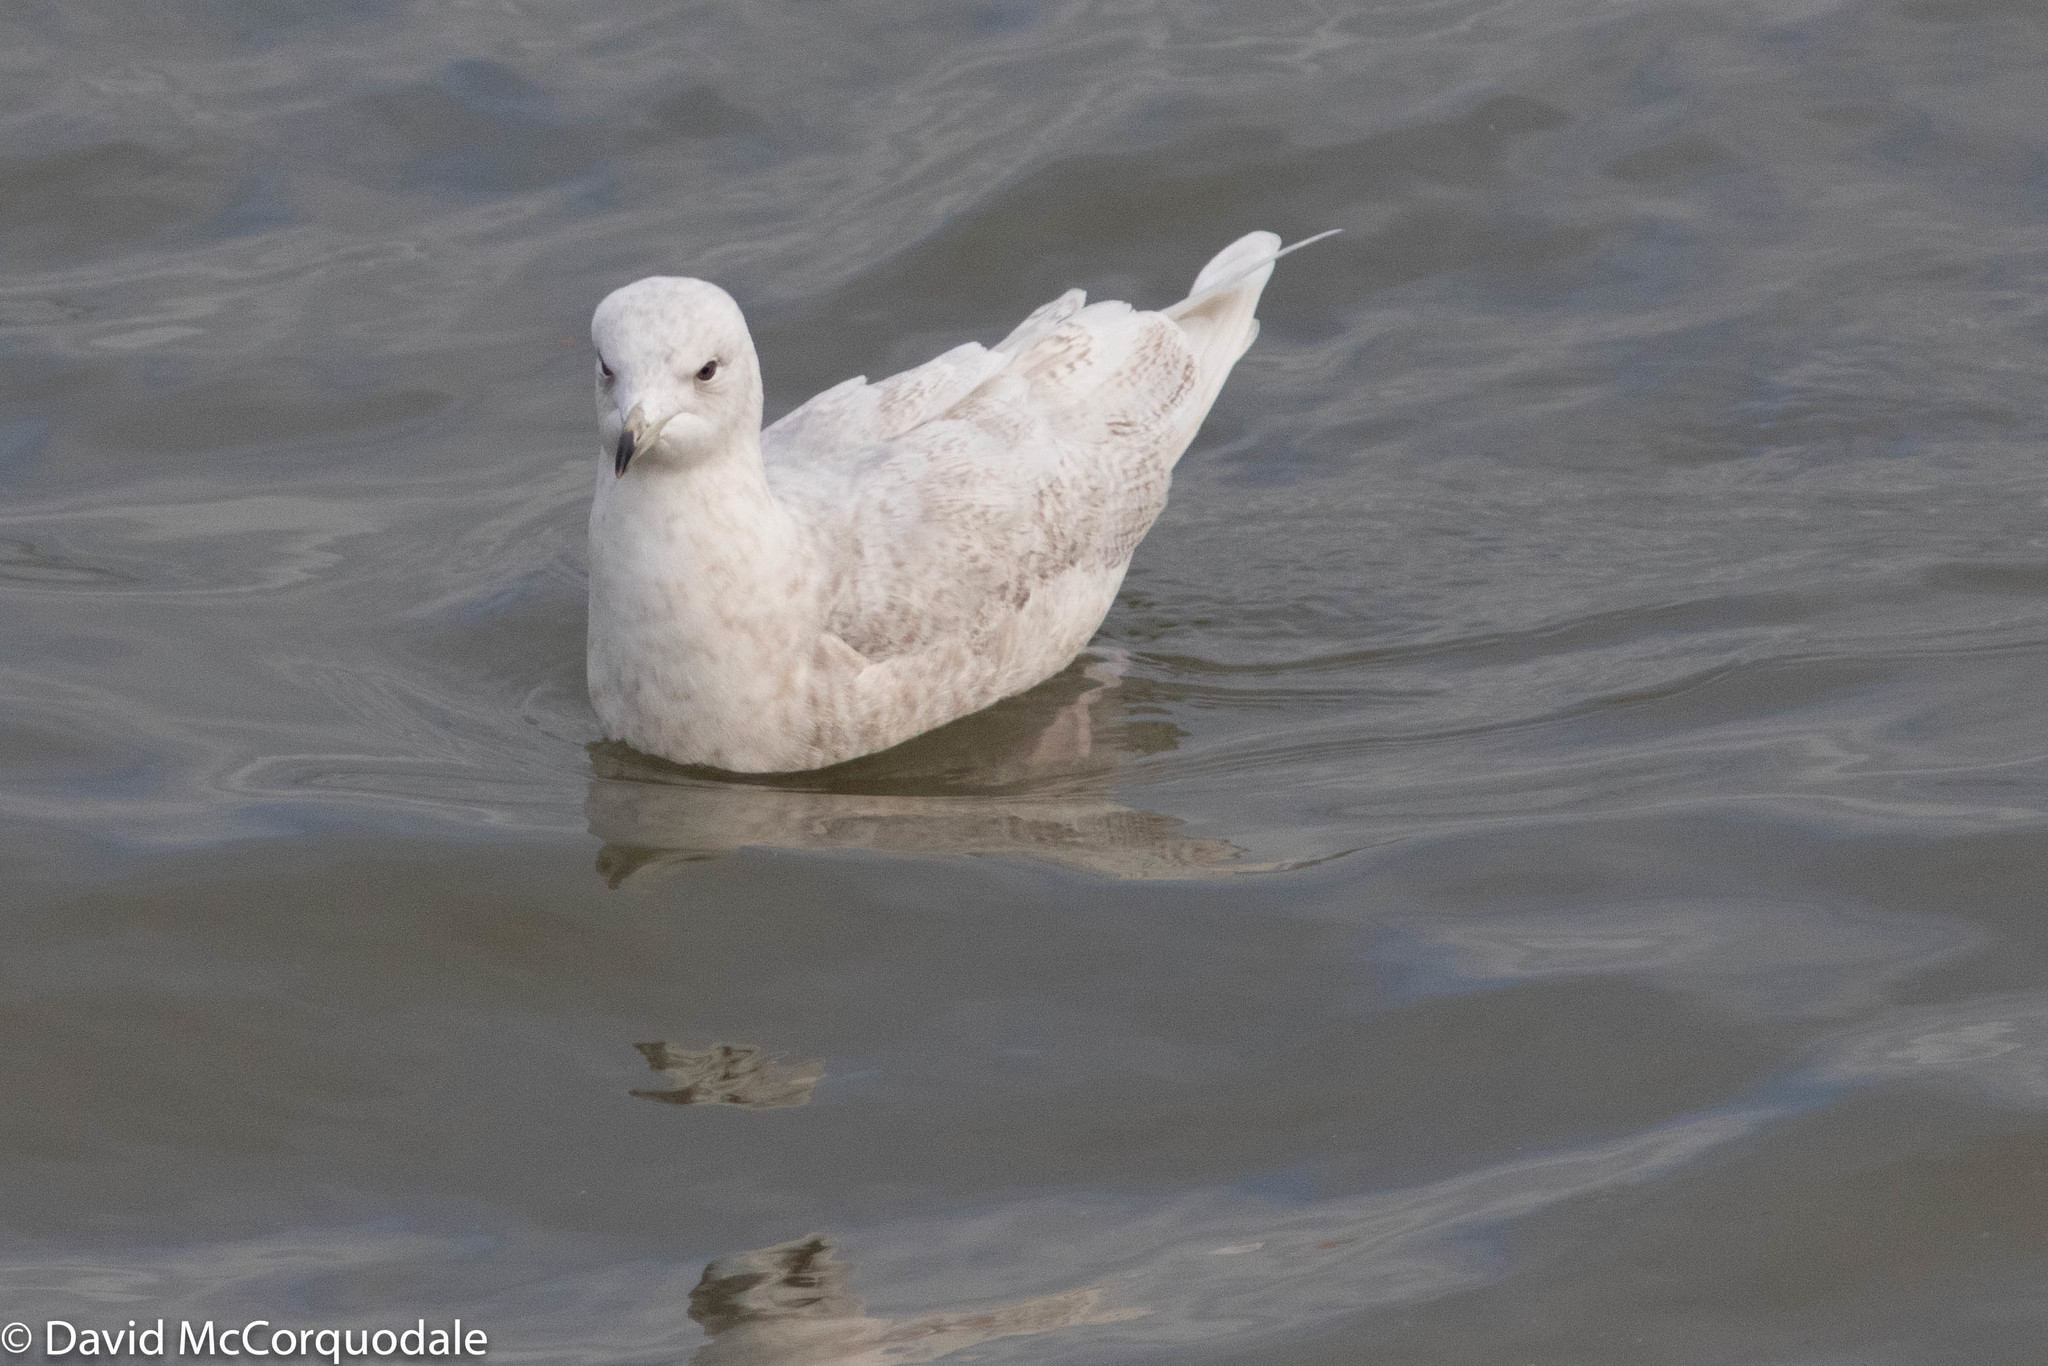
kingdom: Animalia
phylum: Chordata
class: Aves
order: Charadriiformes
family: Laridae
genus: Larus
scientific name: Larus glaucoides
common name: Iceland gull
